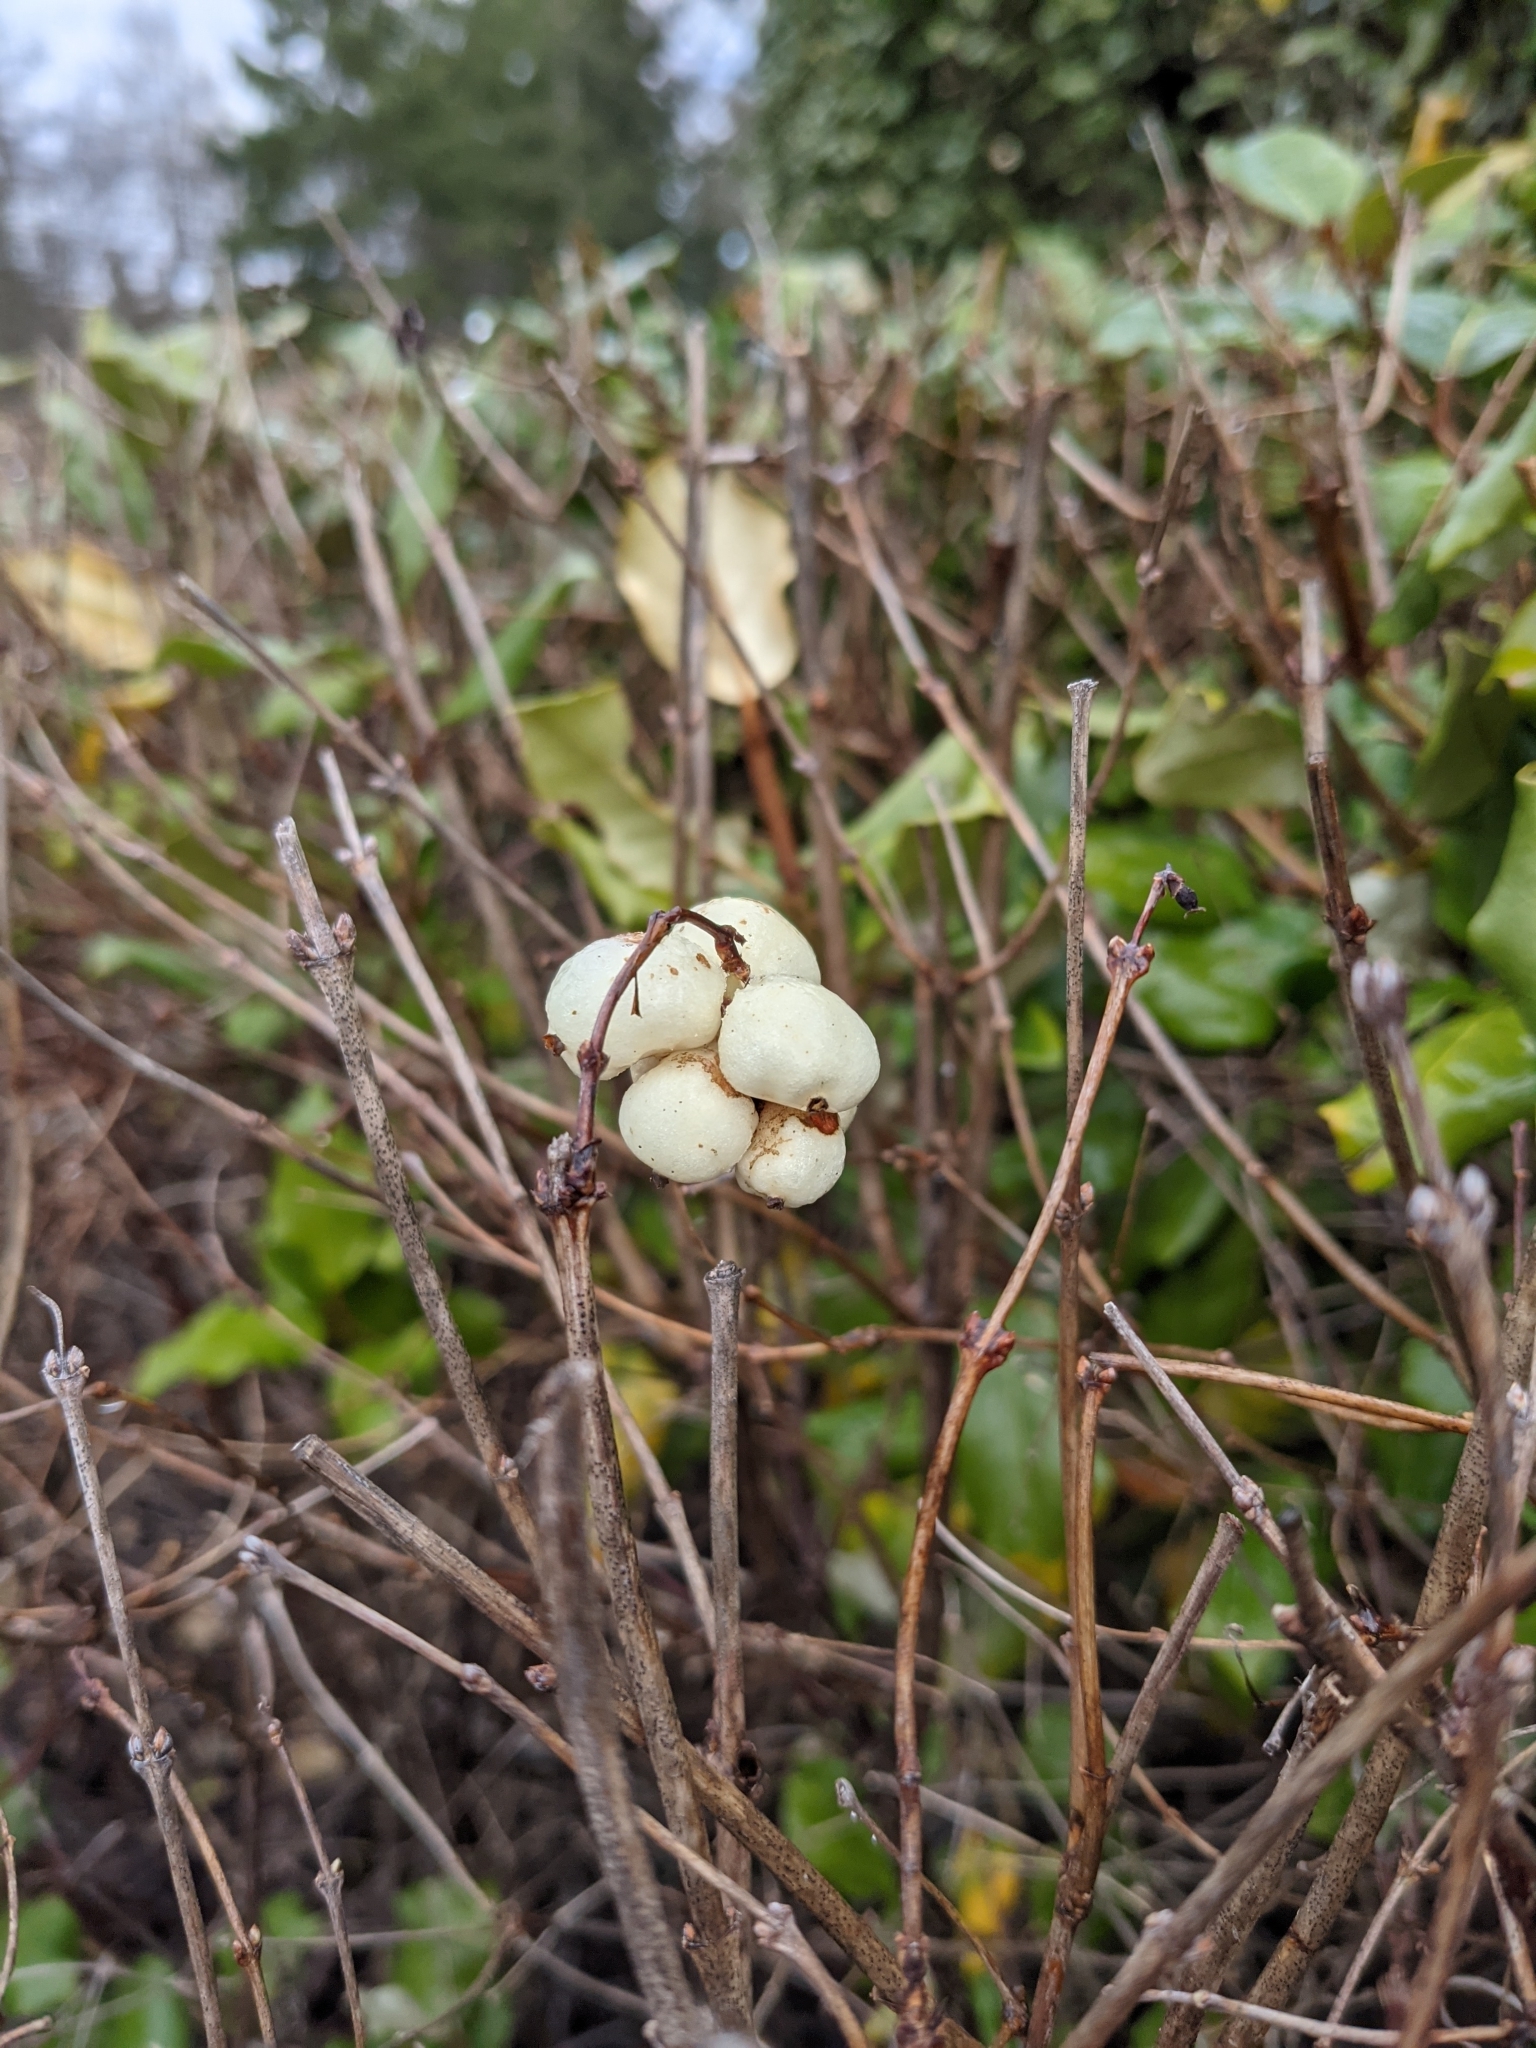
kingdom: Plantae
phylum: Tracheophyta
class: Magnoliopsida
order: Dipsacales
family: Caprifoliaceae
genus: Symphoricarpos
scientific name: Symphoricarpos albus
